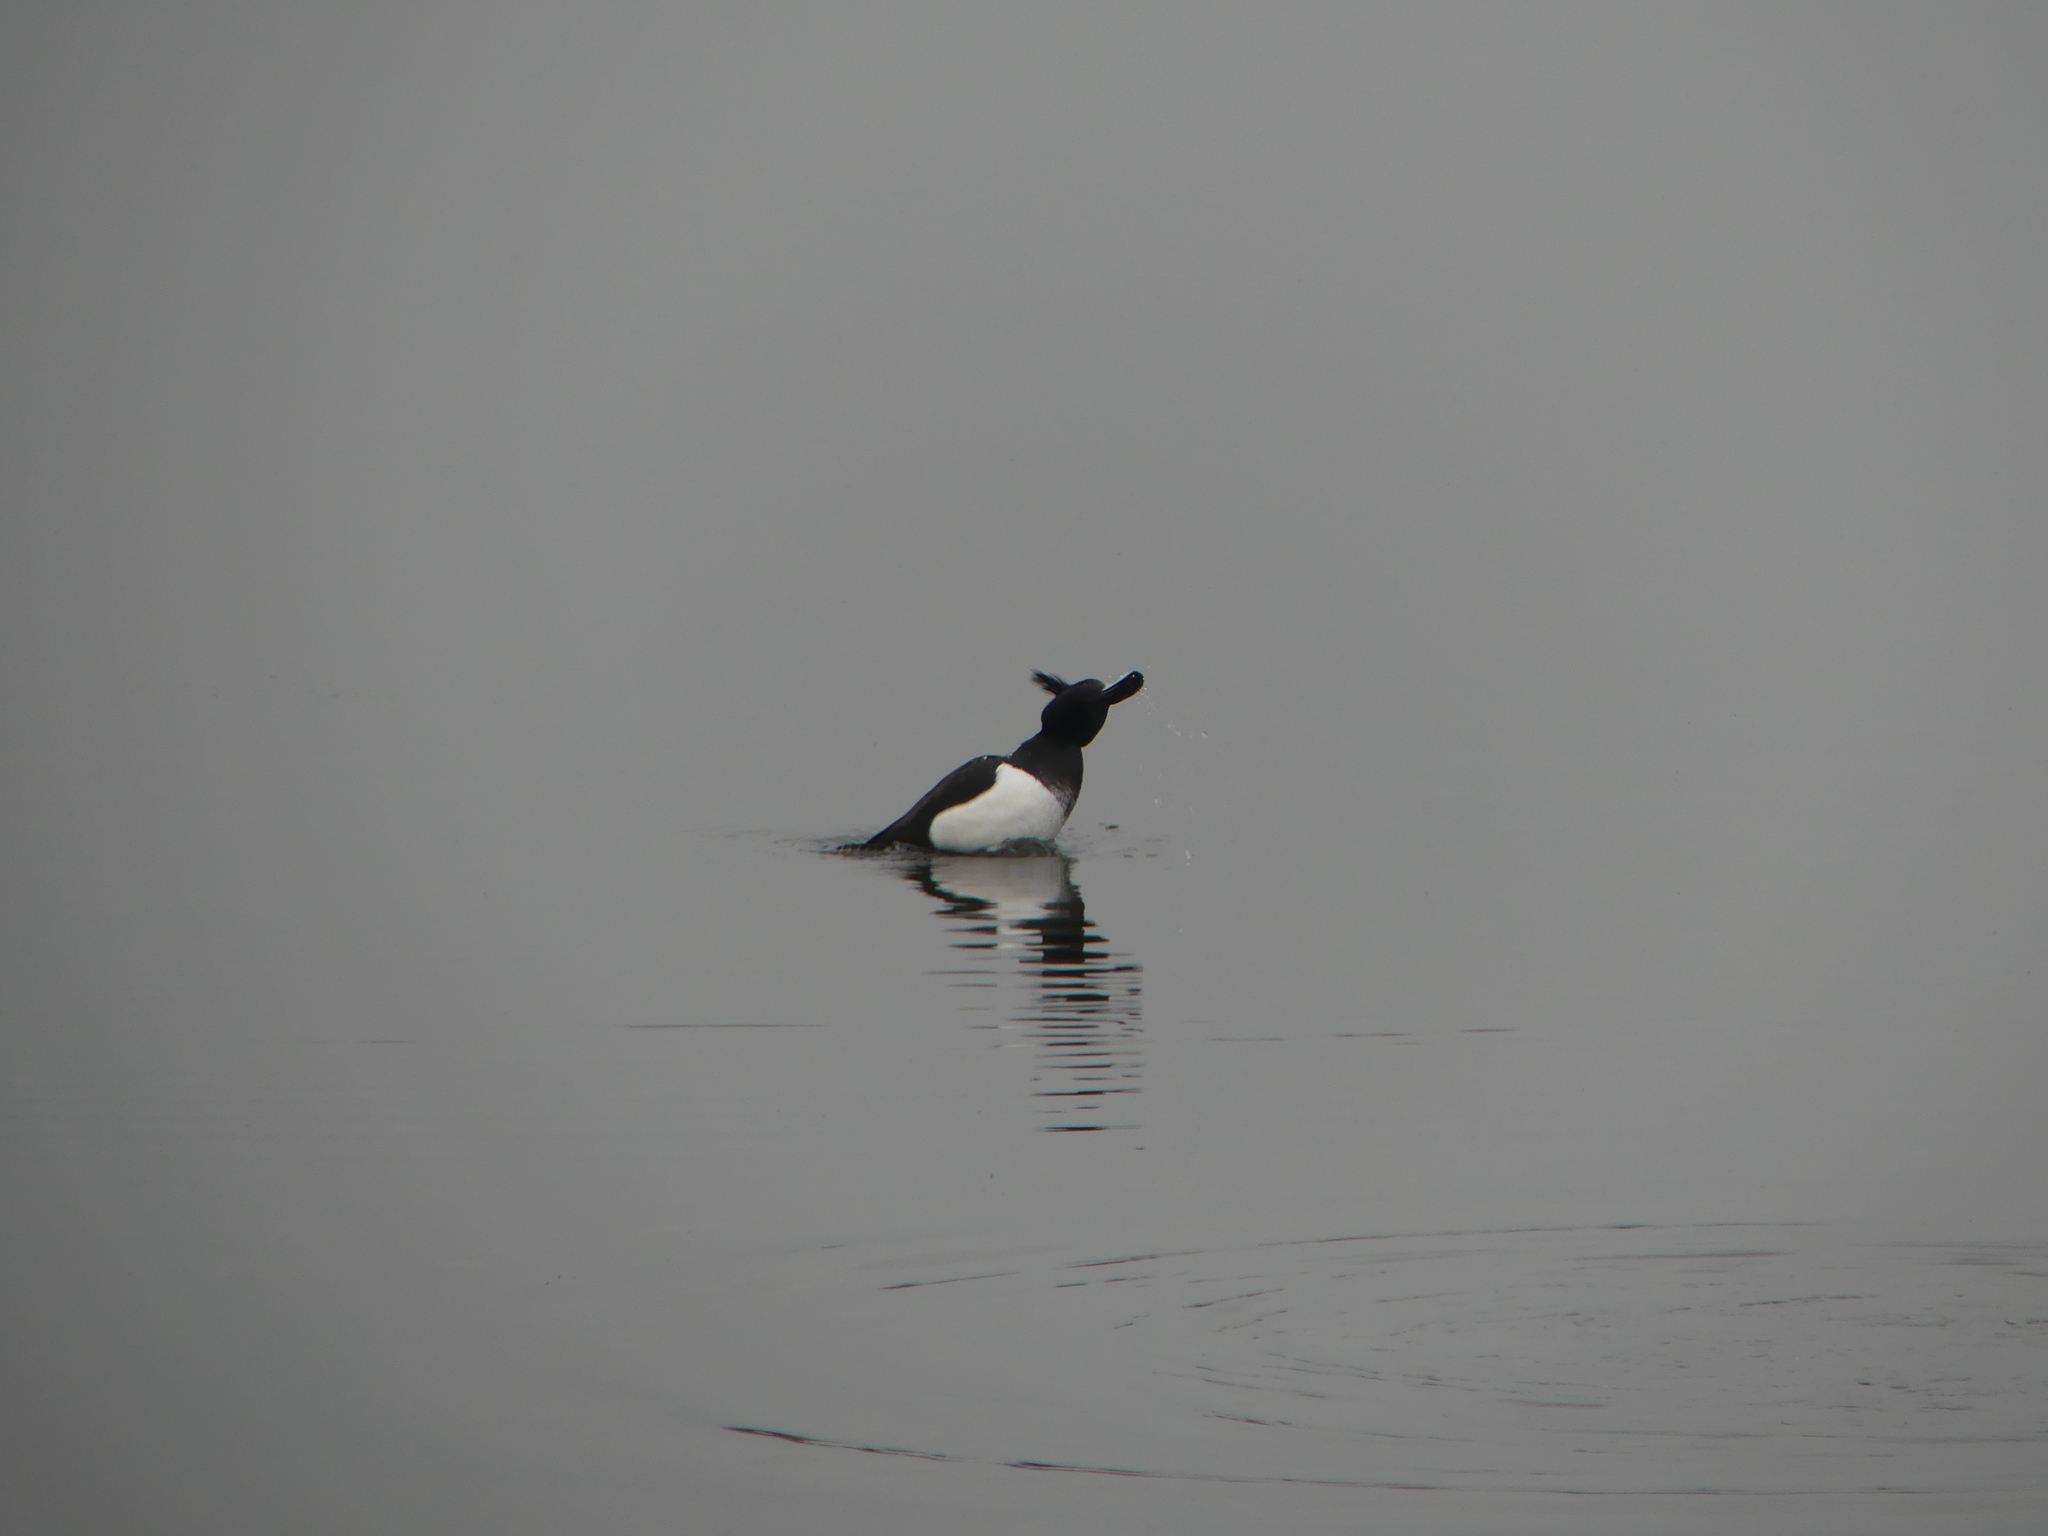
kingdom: Animalia
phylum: Chordata
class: Aves
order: Anseriformes
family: Anatidae
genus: Aythya
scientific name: Aythya fuligula
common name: Tufted duck
